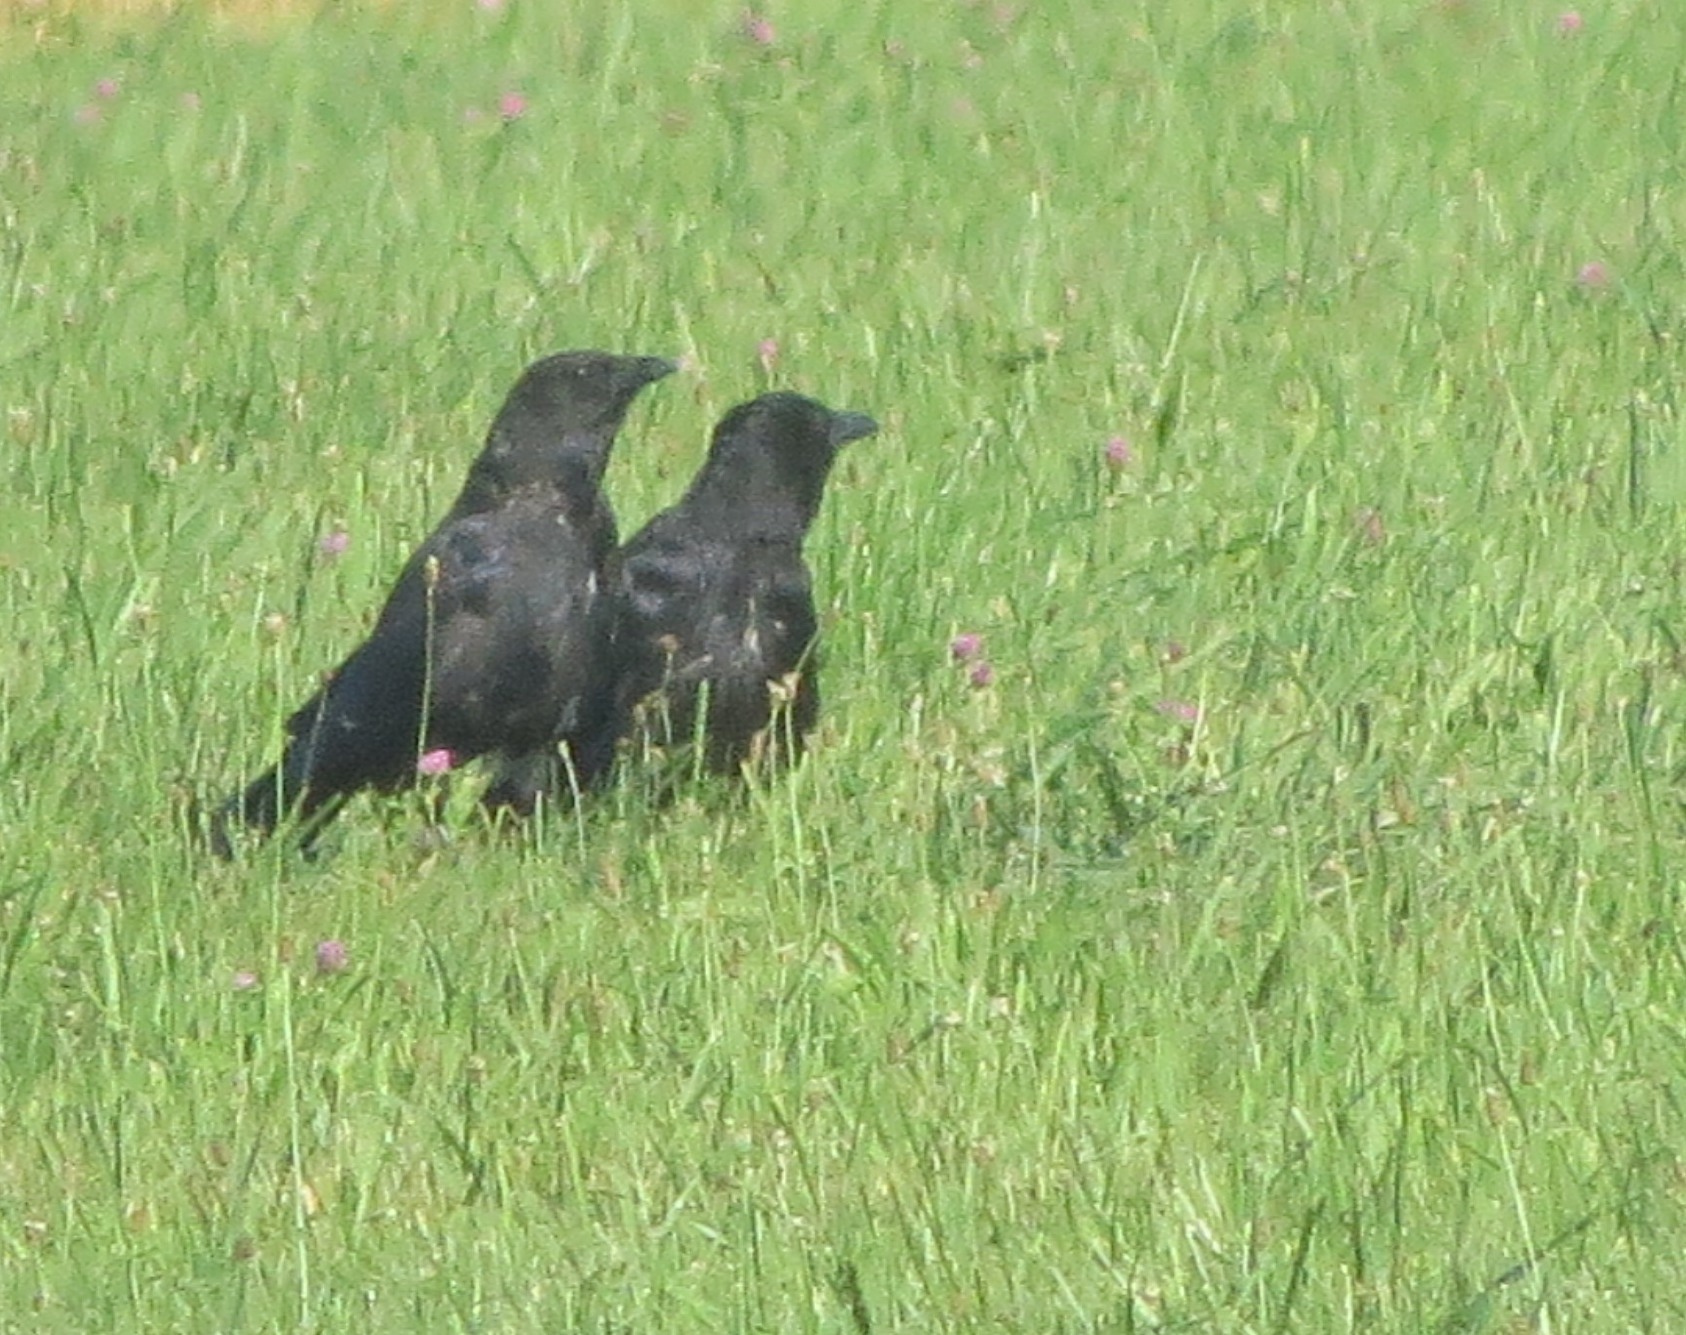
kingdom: Animalia
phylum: Chordata
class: Aves
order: Passeriformes
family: Corvidae
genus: Corvus
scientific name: Corvus corone
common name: Carrion crow
